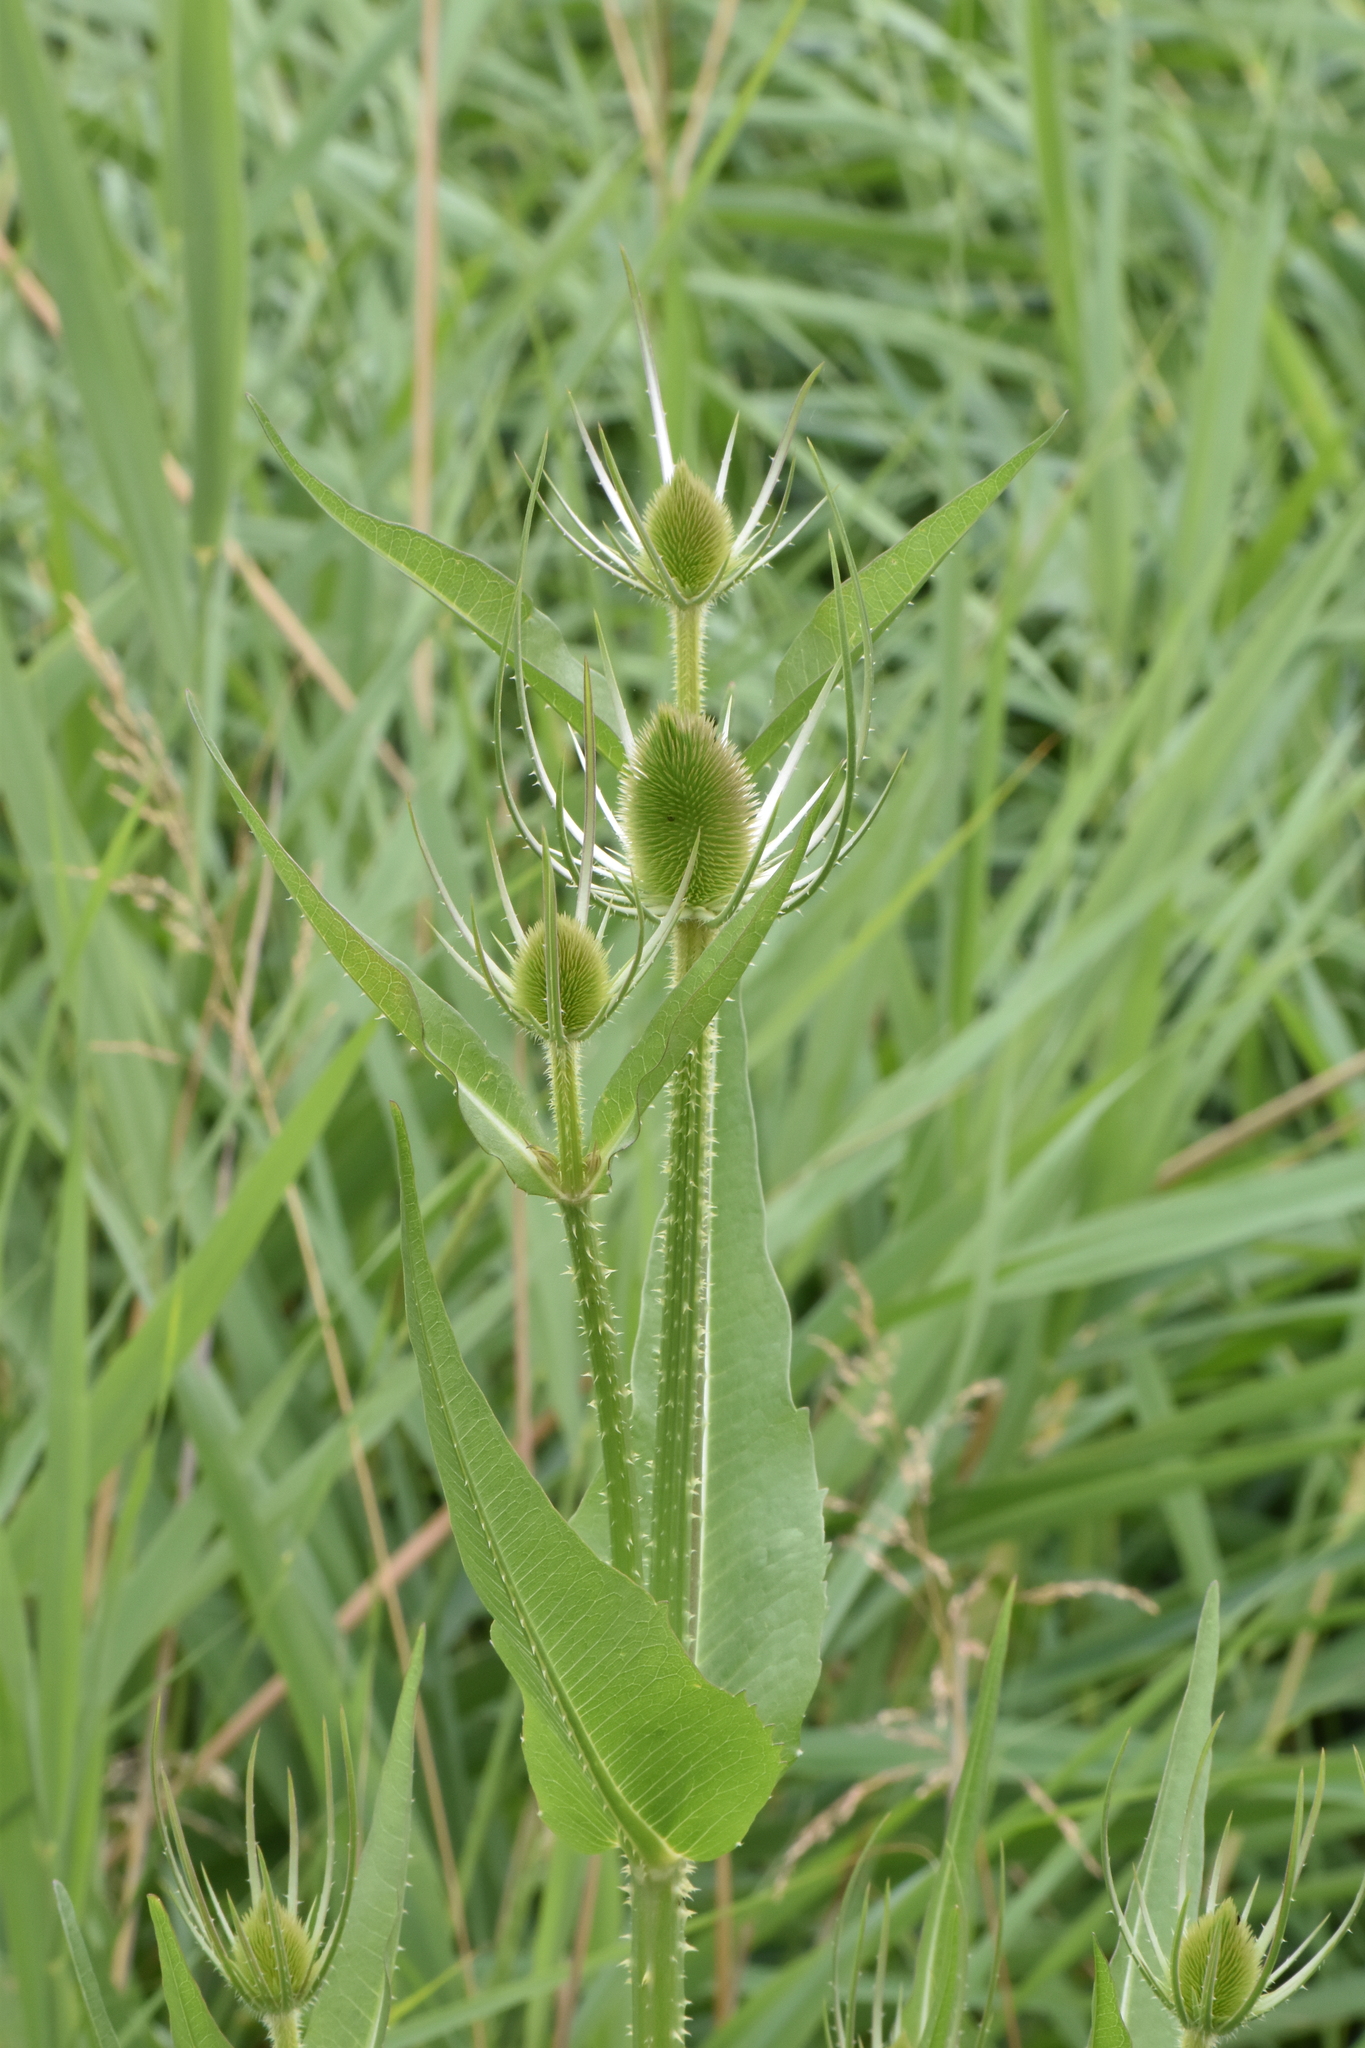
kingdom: Plantae
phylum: Tracheophyta
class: Magnoliopsida
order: Dipsacales
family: Caprifoliaceae
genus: Dipsacus
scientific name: Dipsacus fullonum
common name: Teasel
